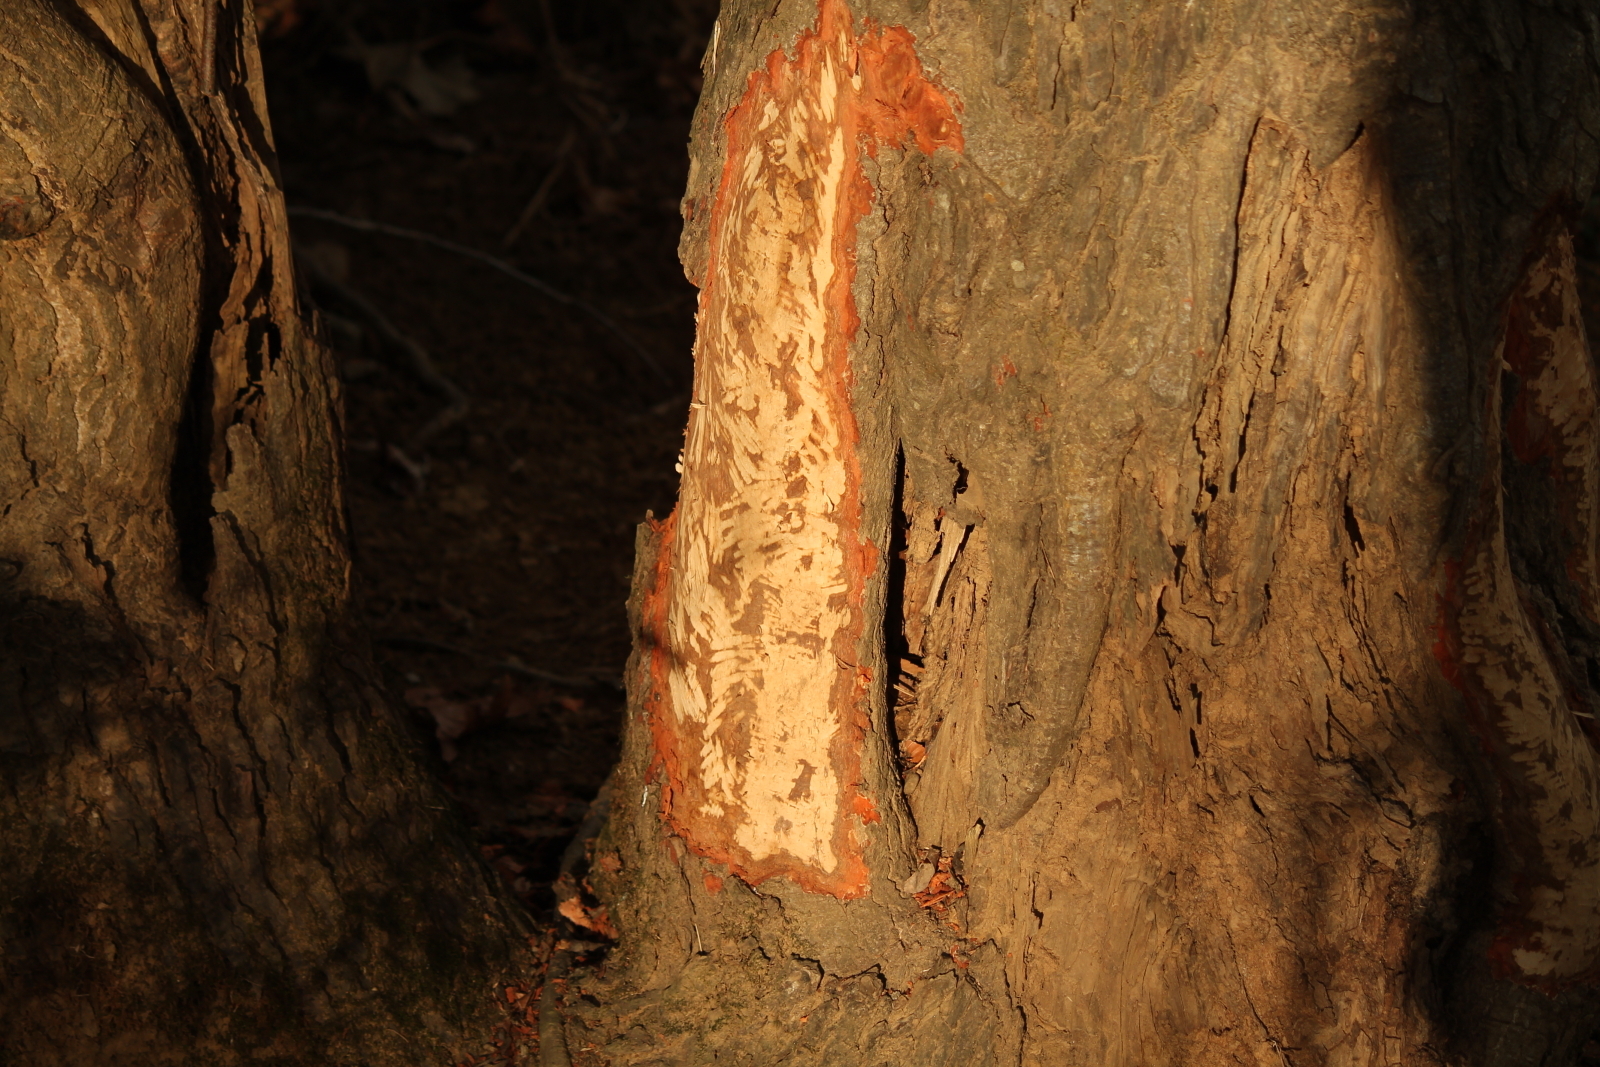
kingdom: Animalia
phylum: Chordata
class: Mammalia
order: Rodentia
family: Castoridae
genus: Castor
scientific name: Castor canadensis
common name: American beaver
